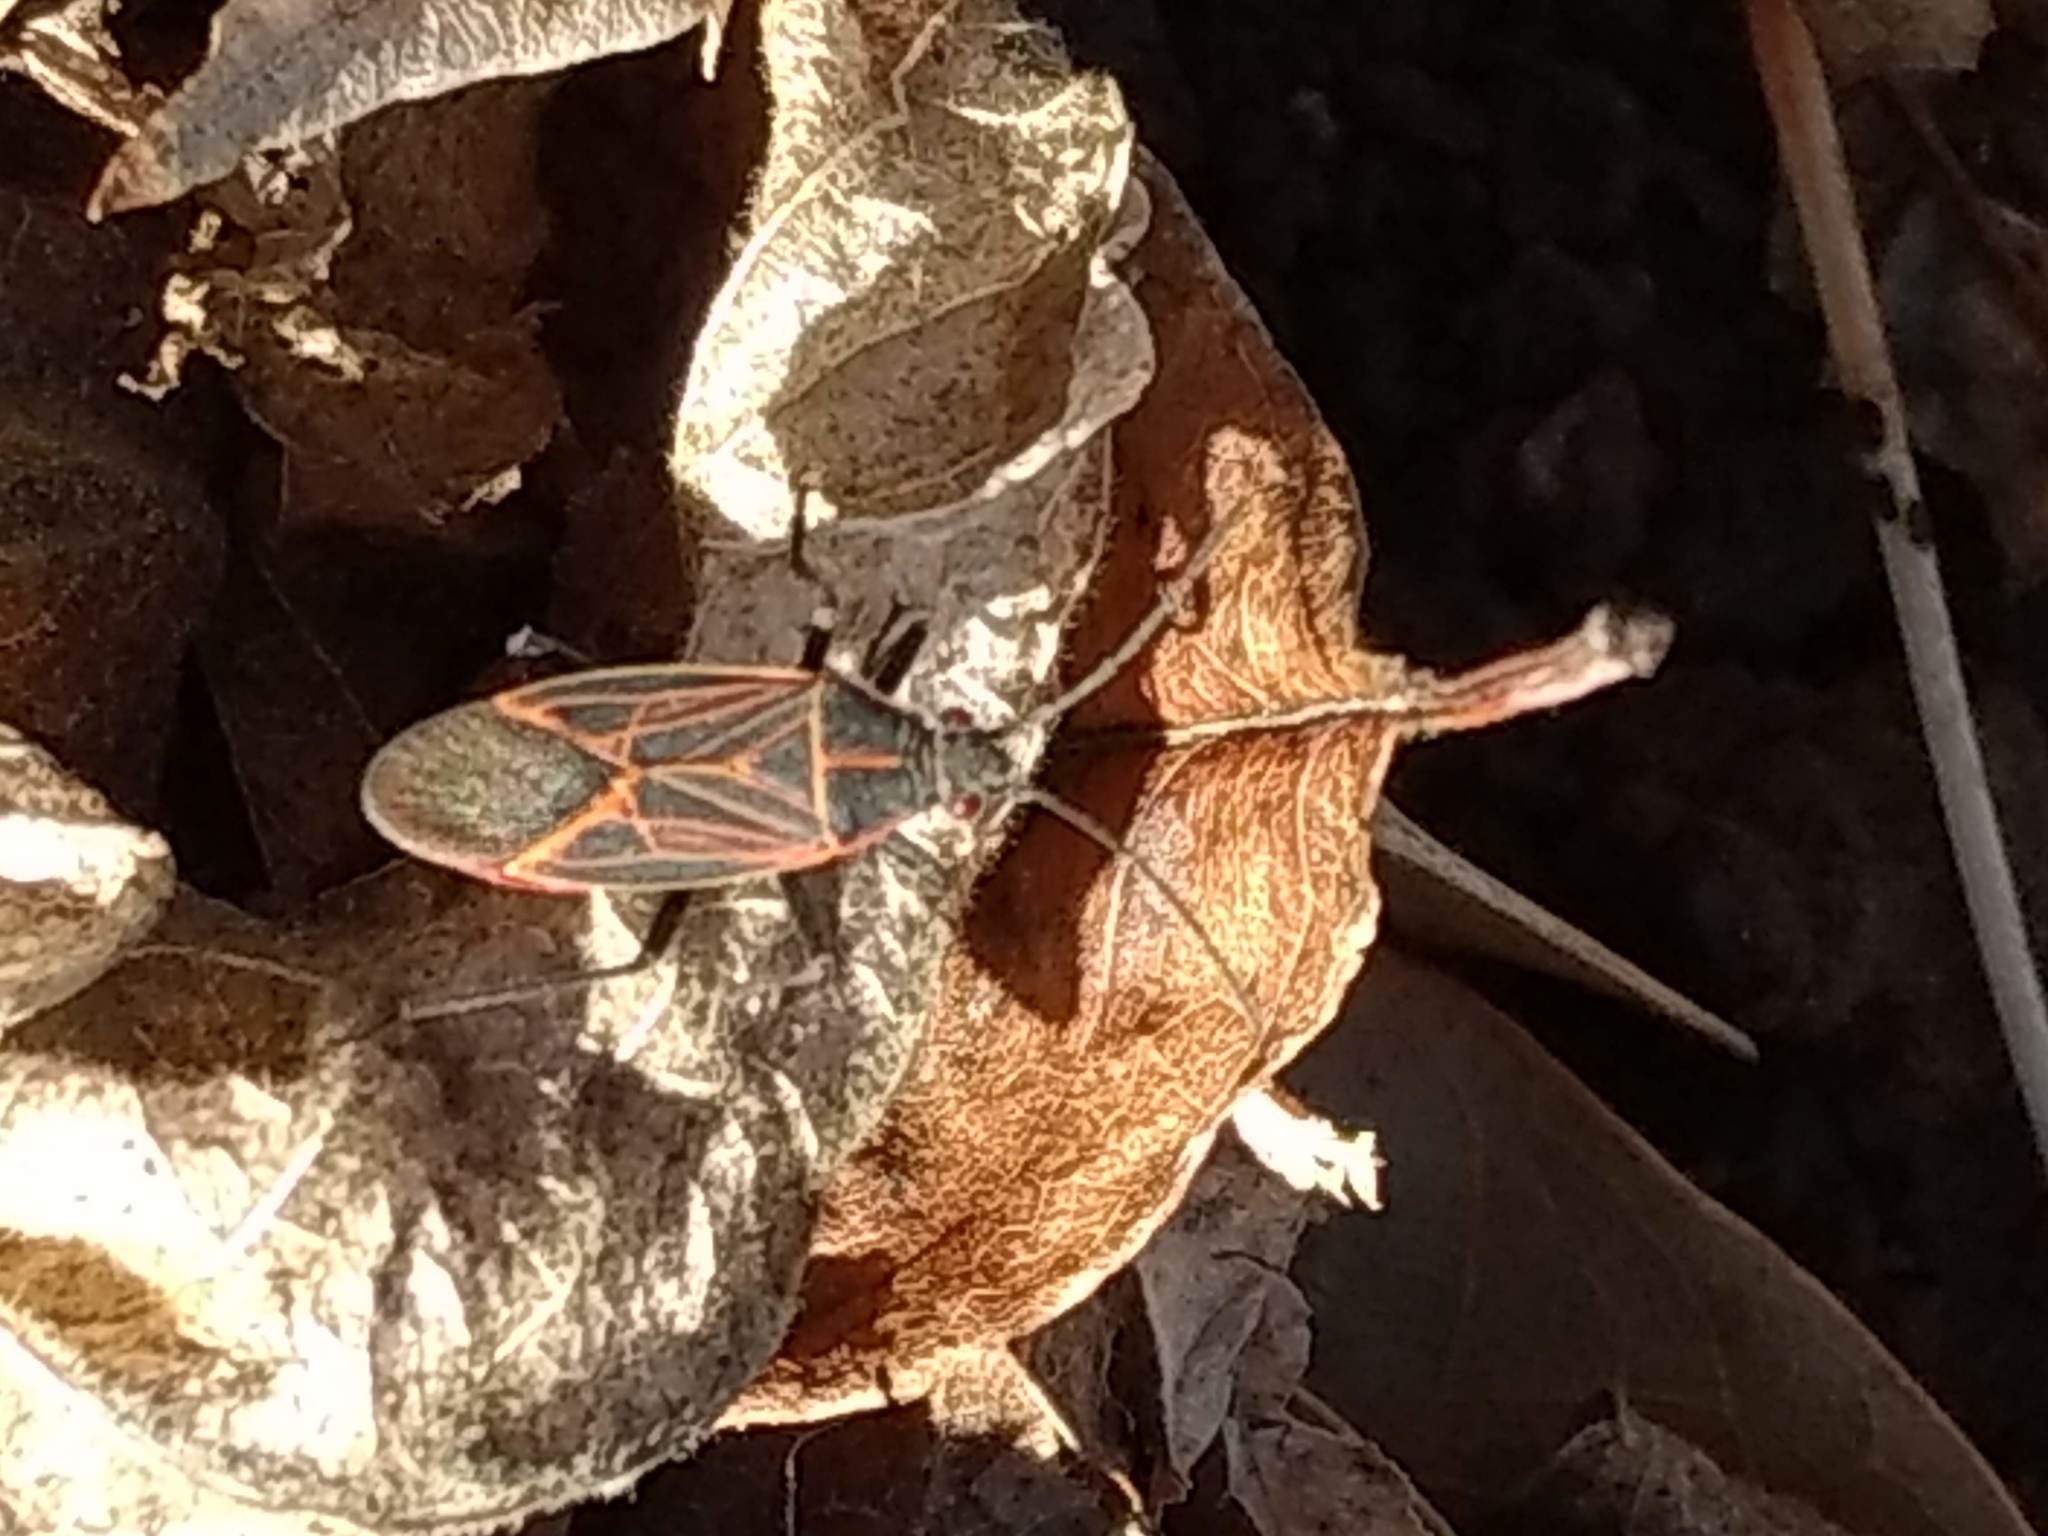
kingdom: Animalia
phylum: Arthropoda
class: Insecta
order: Hemiptera
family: Rhopalidae
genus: Boisea
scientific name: Boisea rubrolineata
